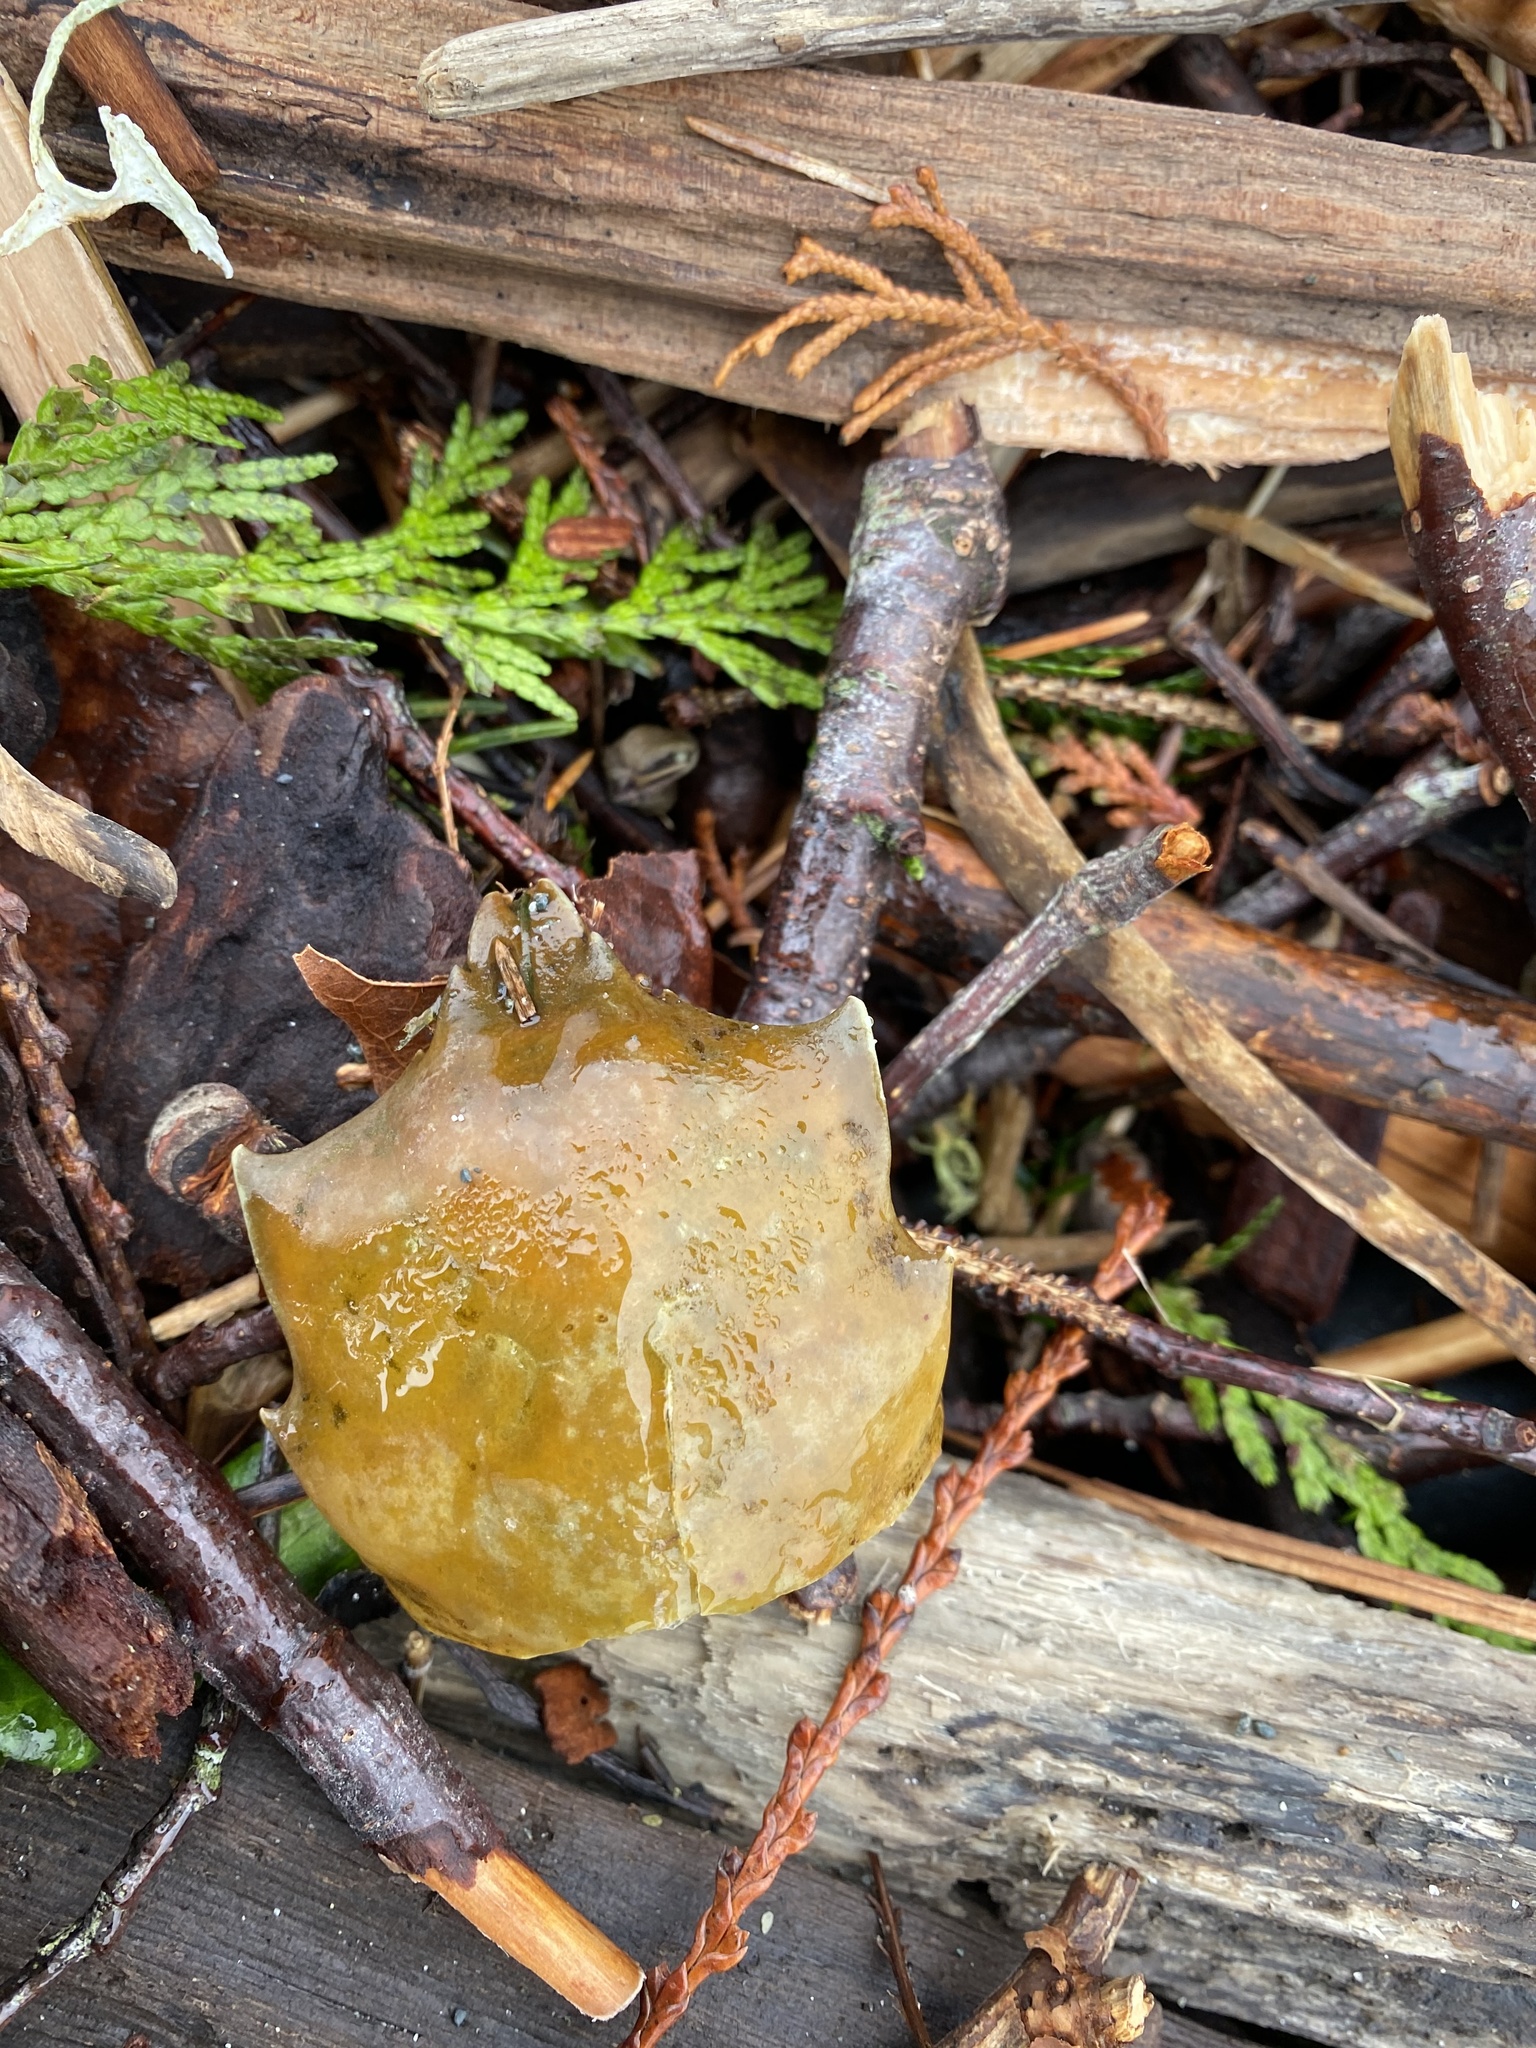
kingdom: Animalia
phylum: Arthropoda
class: Malacostraca
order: Decapoda
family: Epialtidae
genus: Pugettia
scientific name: Pugettia producta
